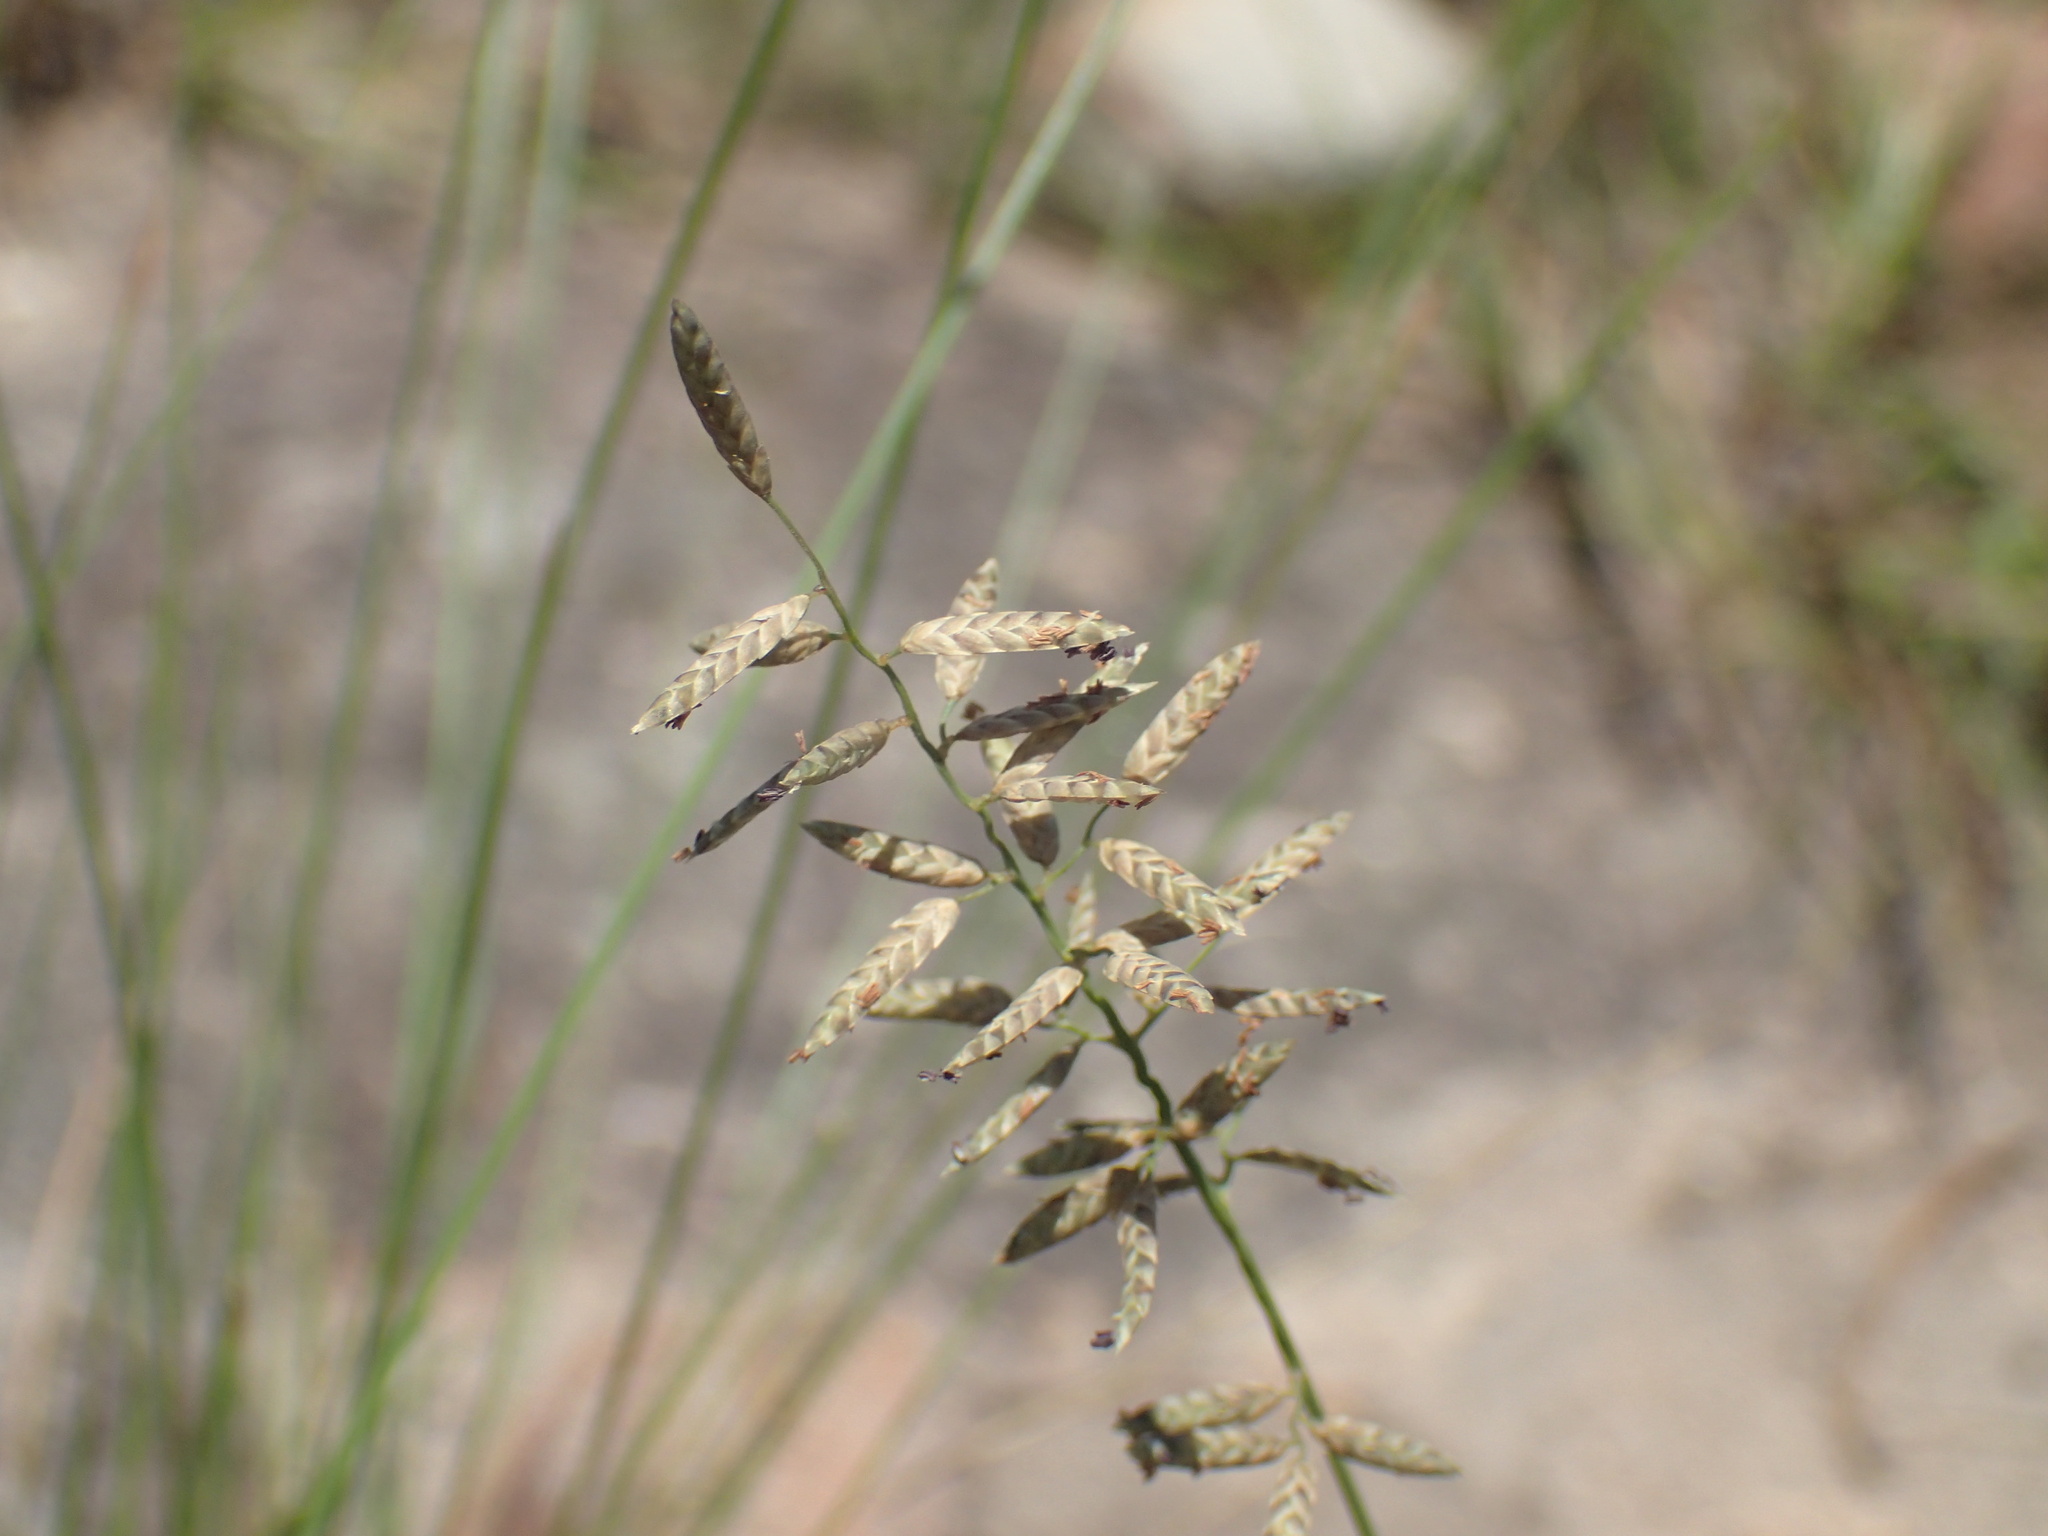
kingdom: Plantae
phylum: Tracheophyta
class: Liliopsida
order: Poales
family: Poaceae
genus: Eragrostis
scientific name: Eragrostis racemosa
